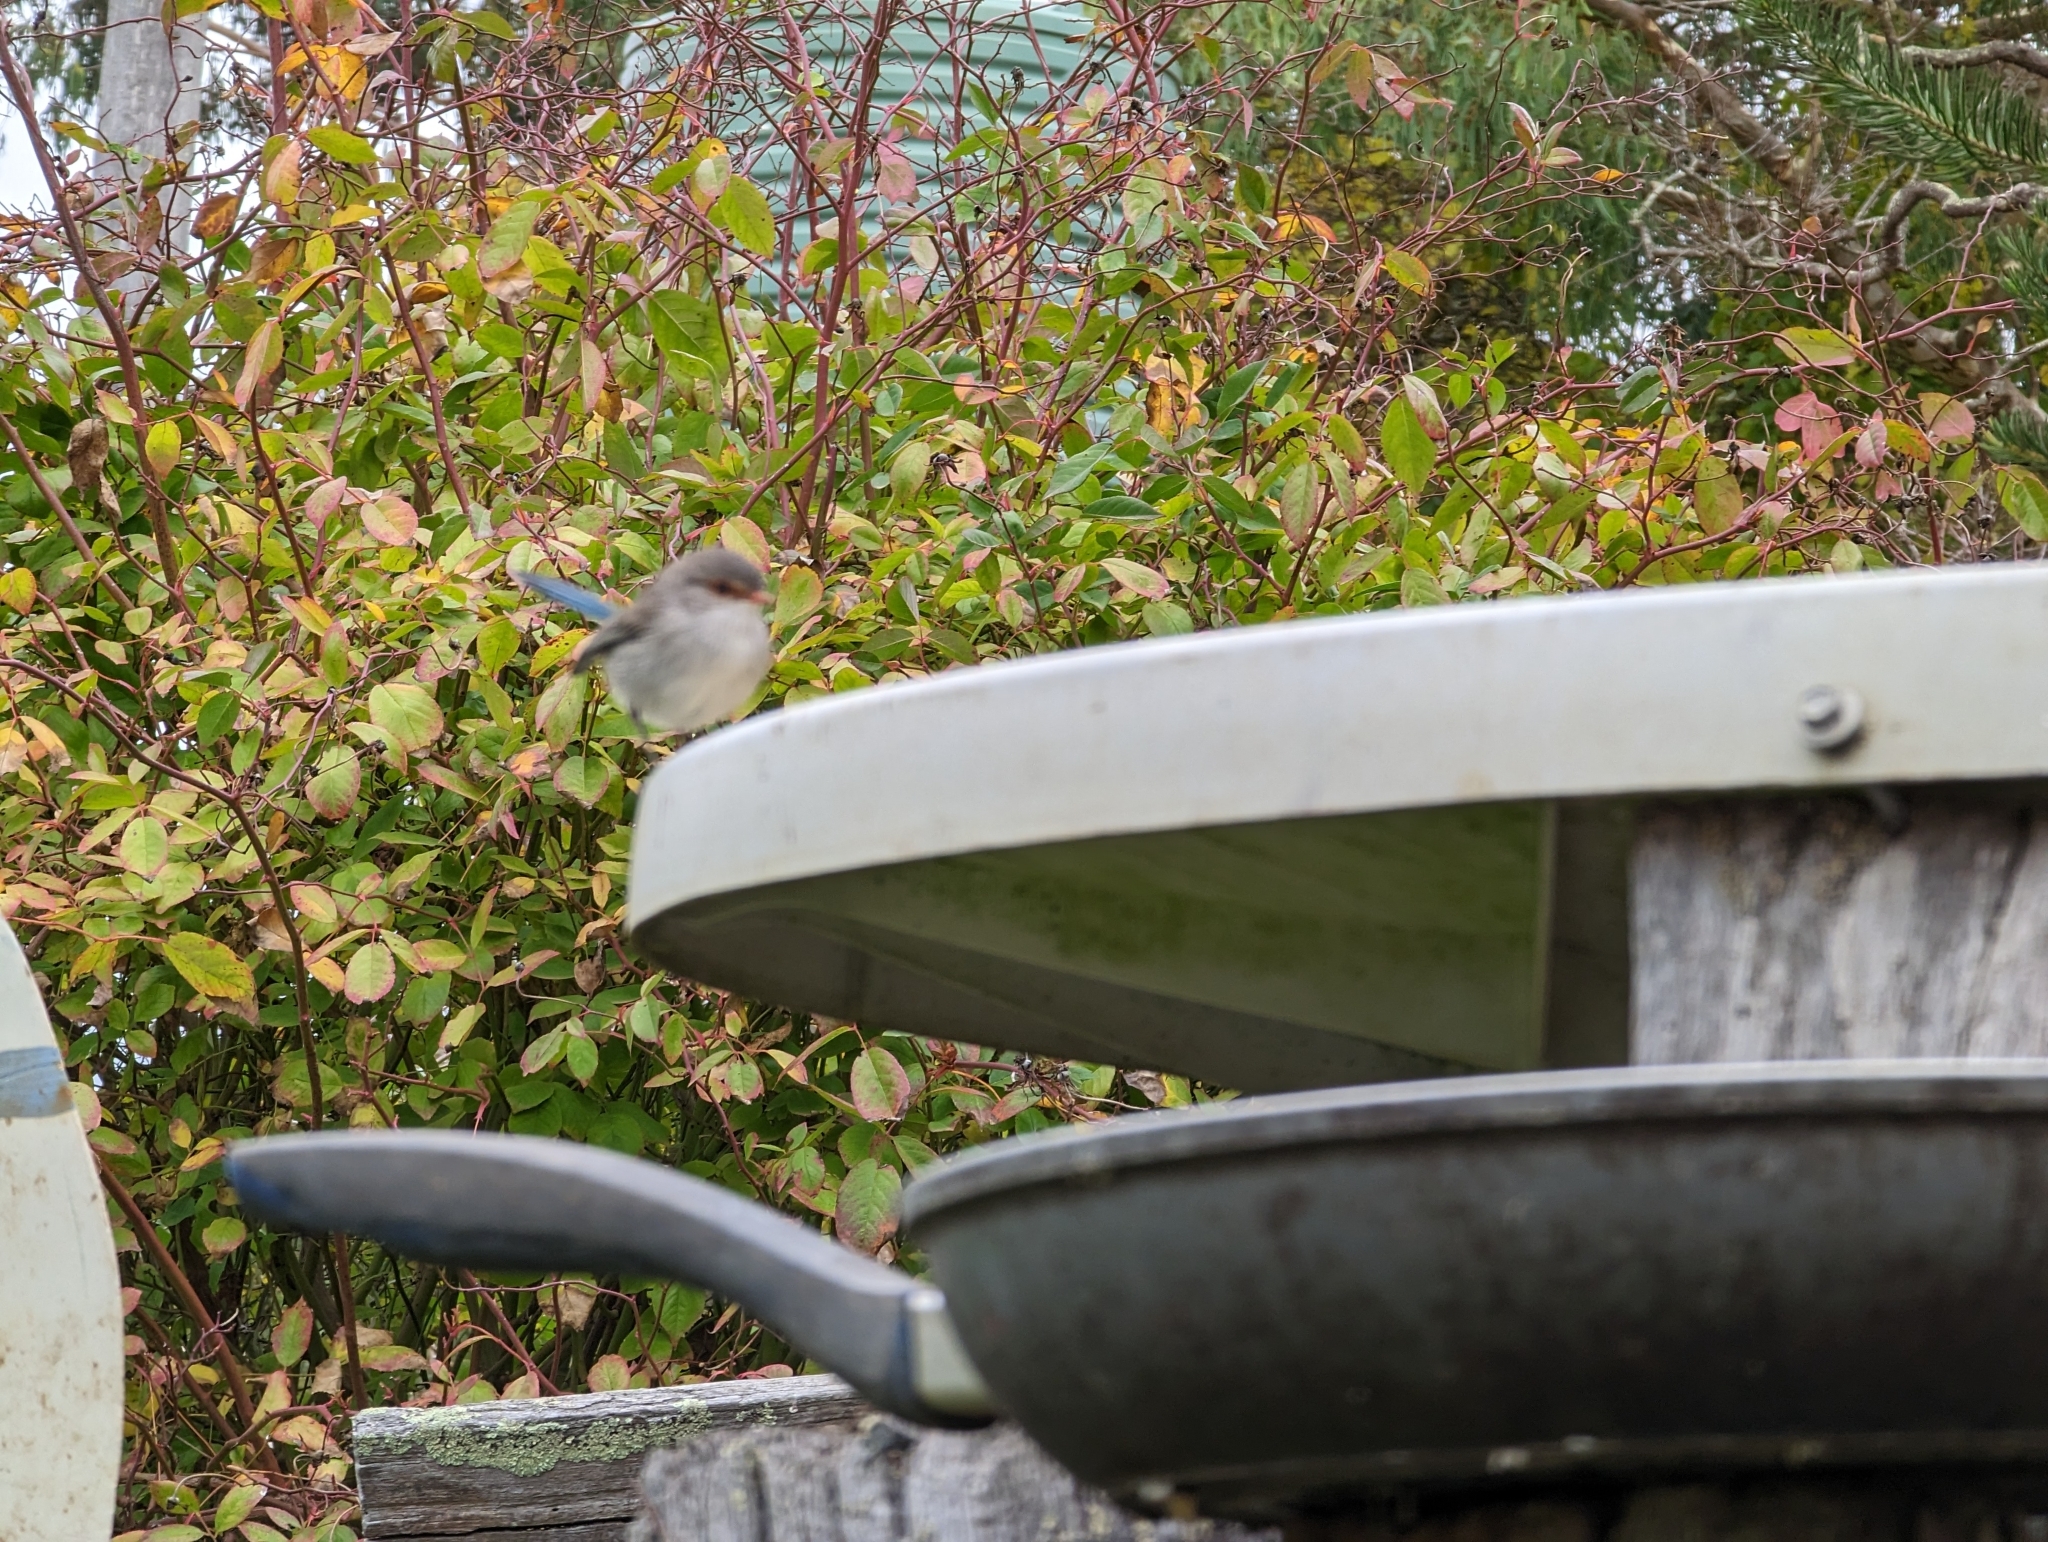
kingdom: Animalia
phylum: Chordata
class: Aves
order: Passeriformes
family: Maluridae
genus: Malurus
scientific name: Malurus splendens
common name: Splendid fairywren
